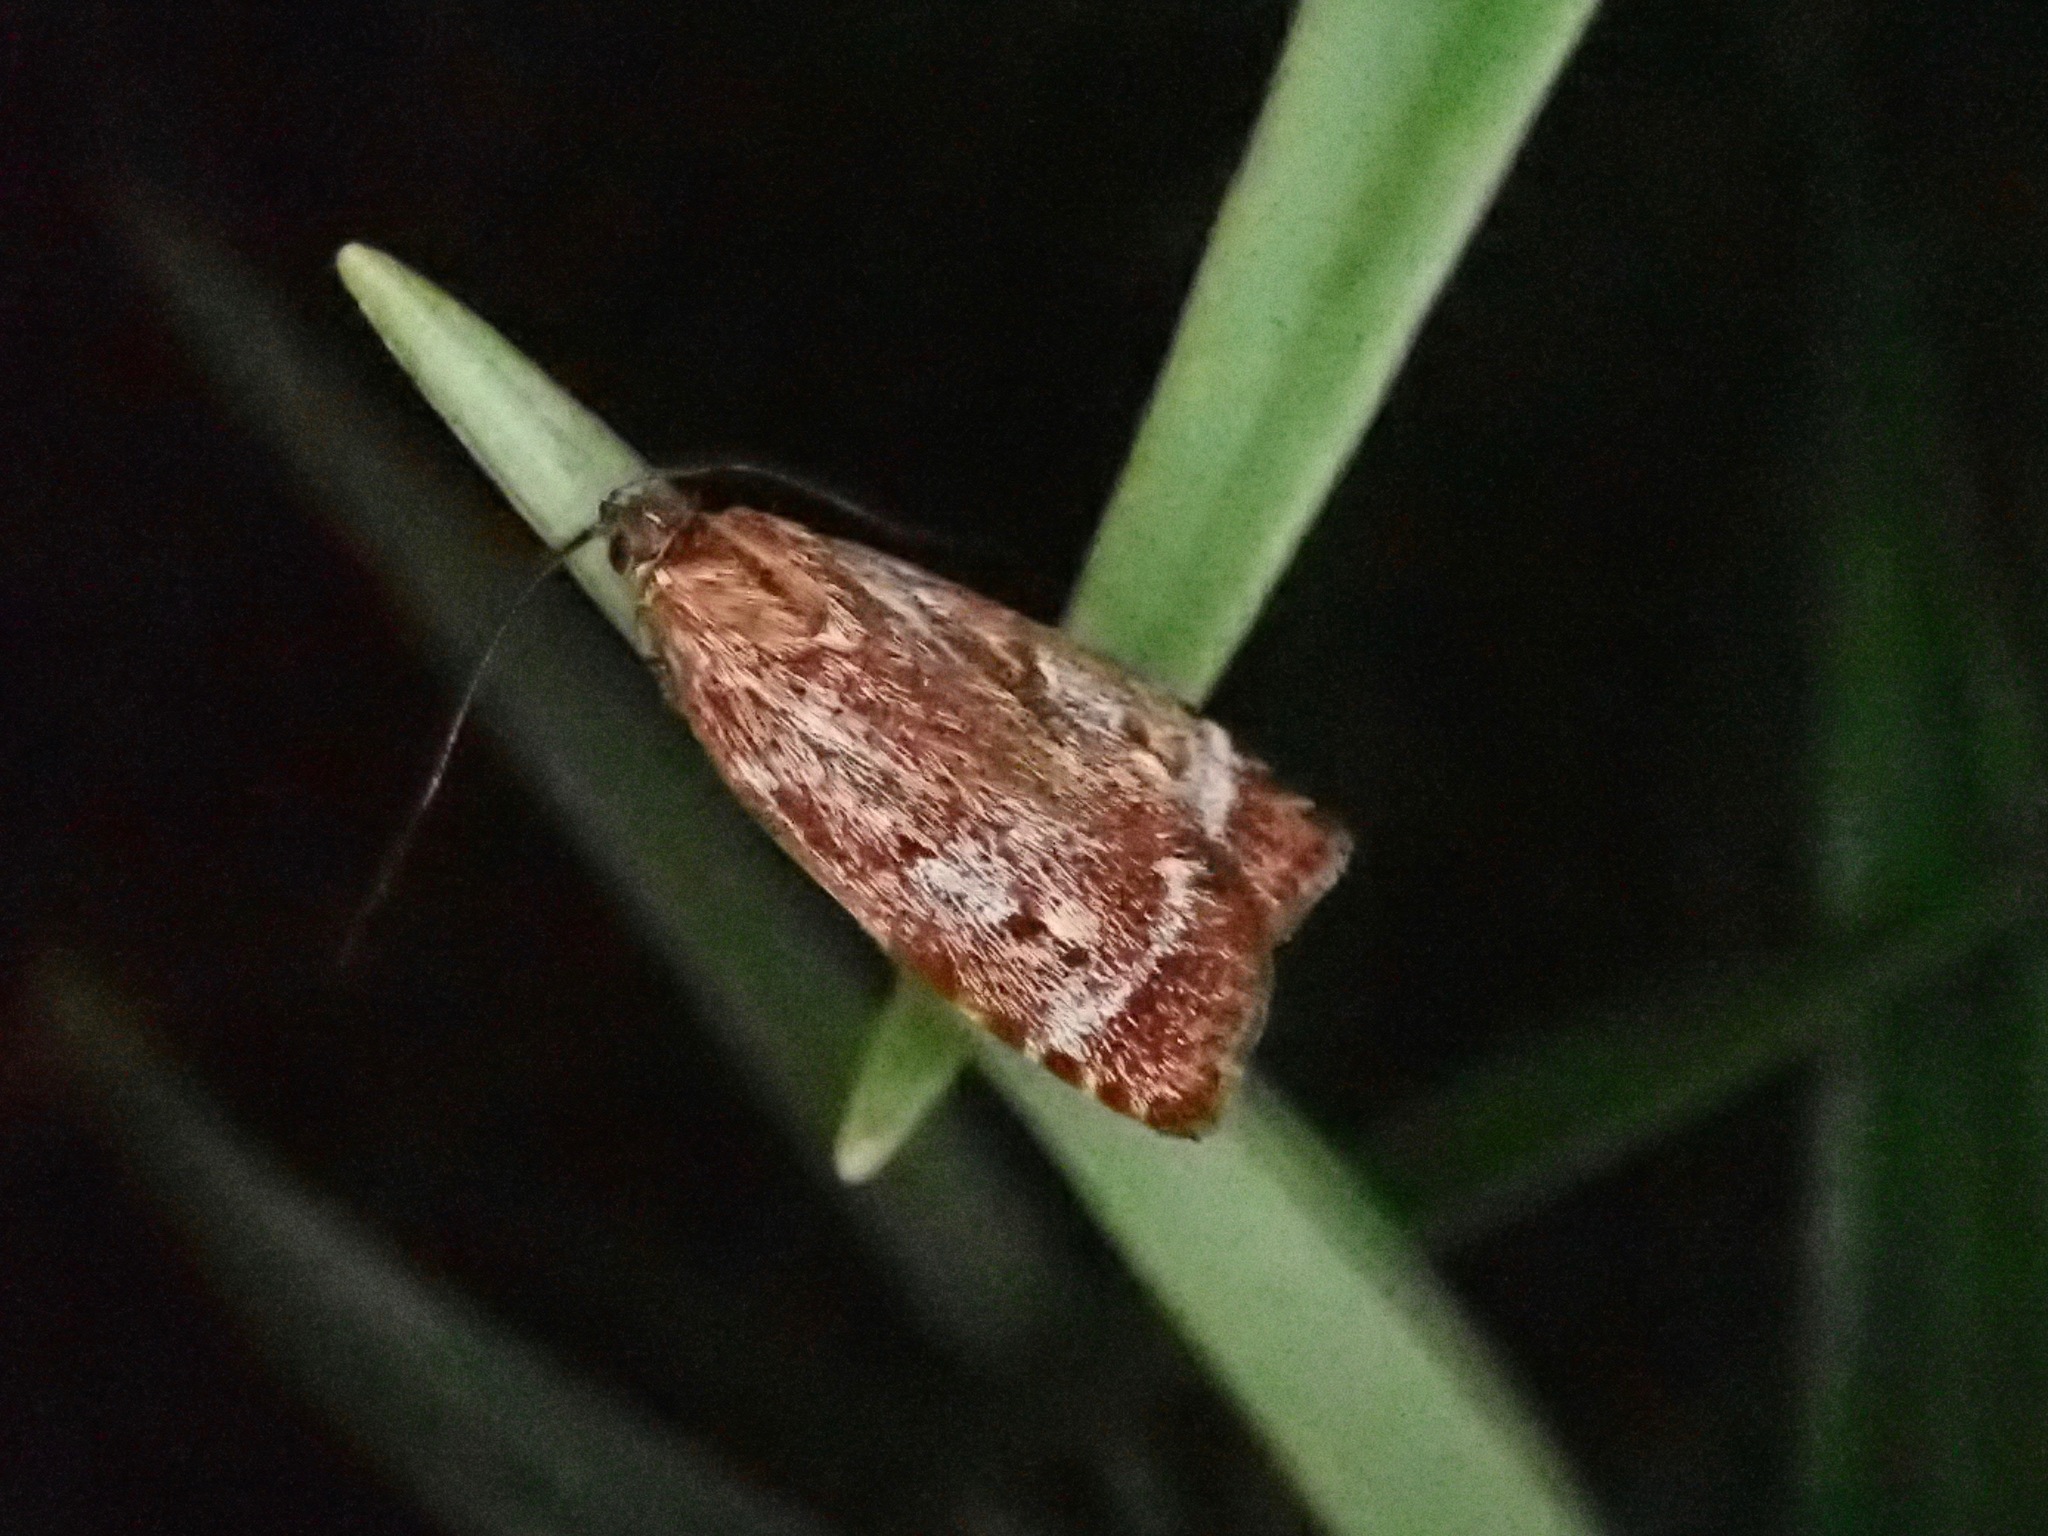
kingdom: Animalia
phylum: Arthropoda
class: Insecta
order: Lepidoptera
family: Oecophoridae
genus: Hierodoris
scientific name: Hierodoris
